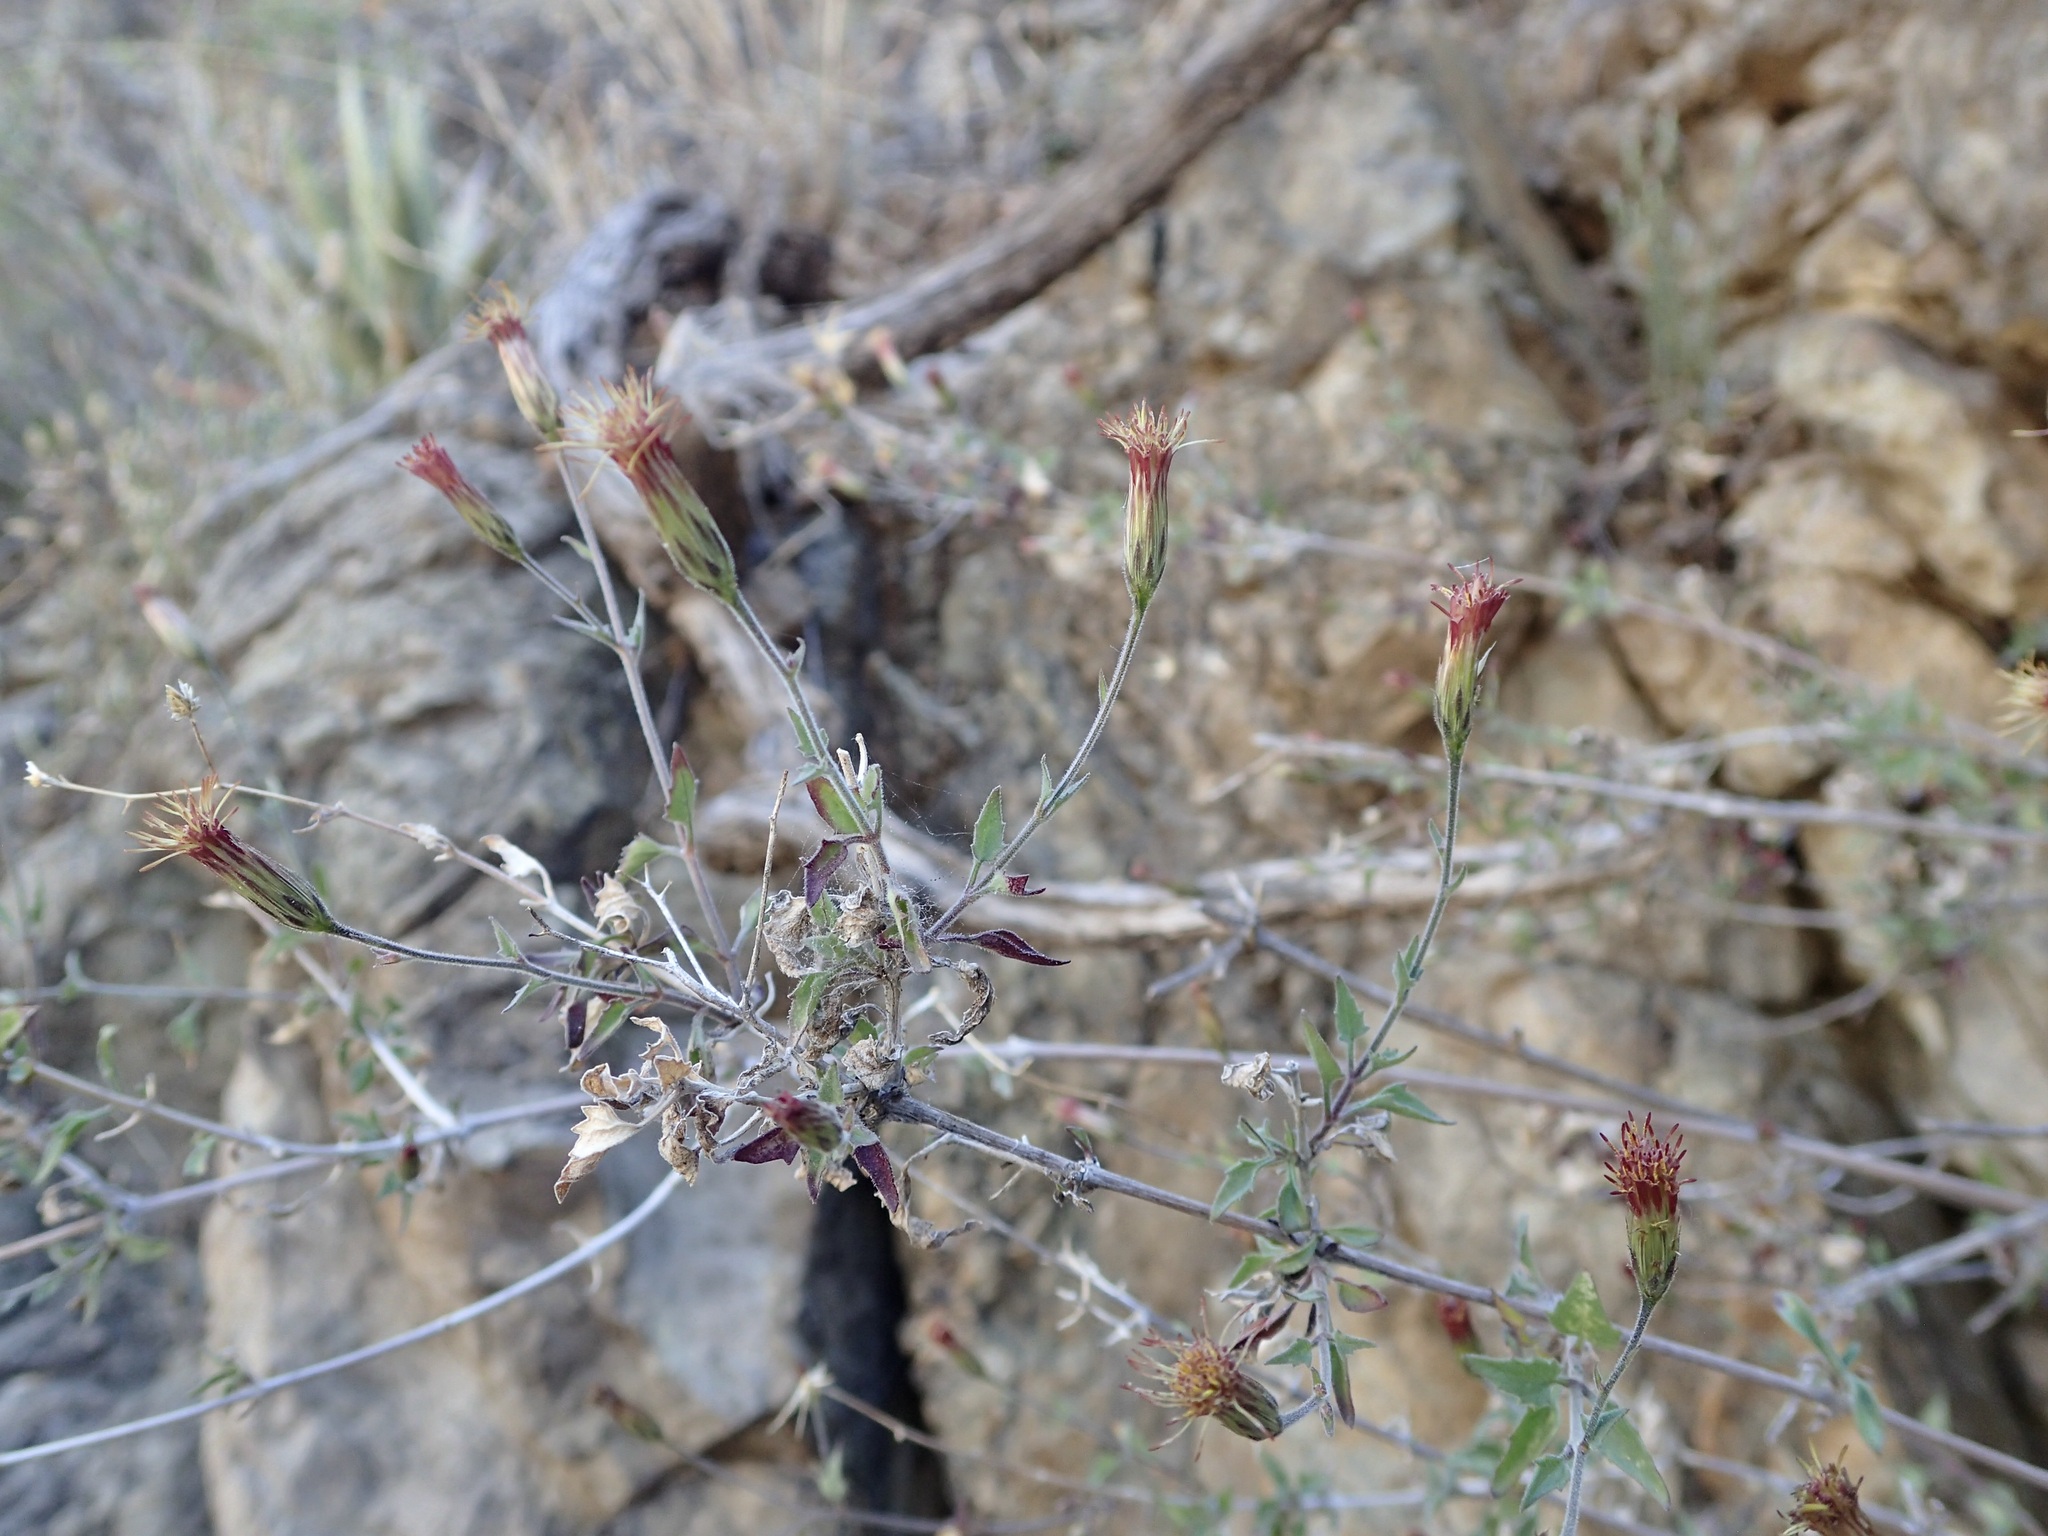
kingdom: Plantae
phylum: Tracheophyta
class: Magnoliopsida
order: Asterales
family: Asteraceae
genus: Brickellia
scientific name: Brickellia coulteri
